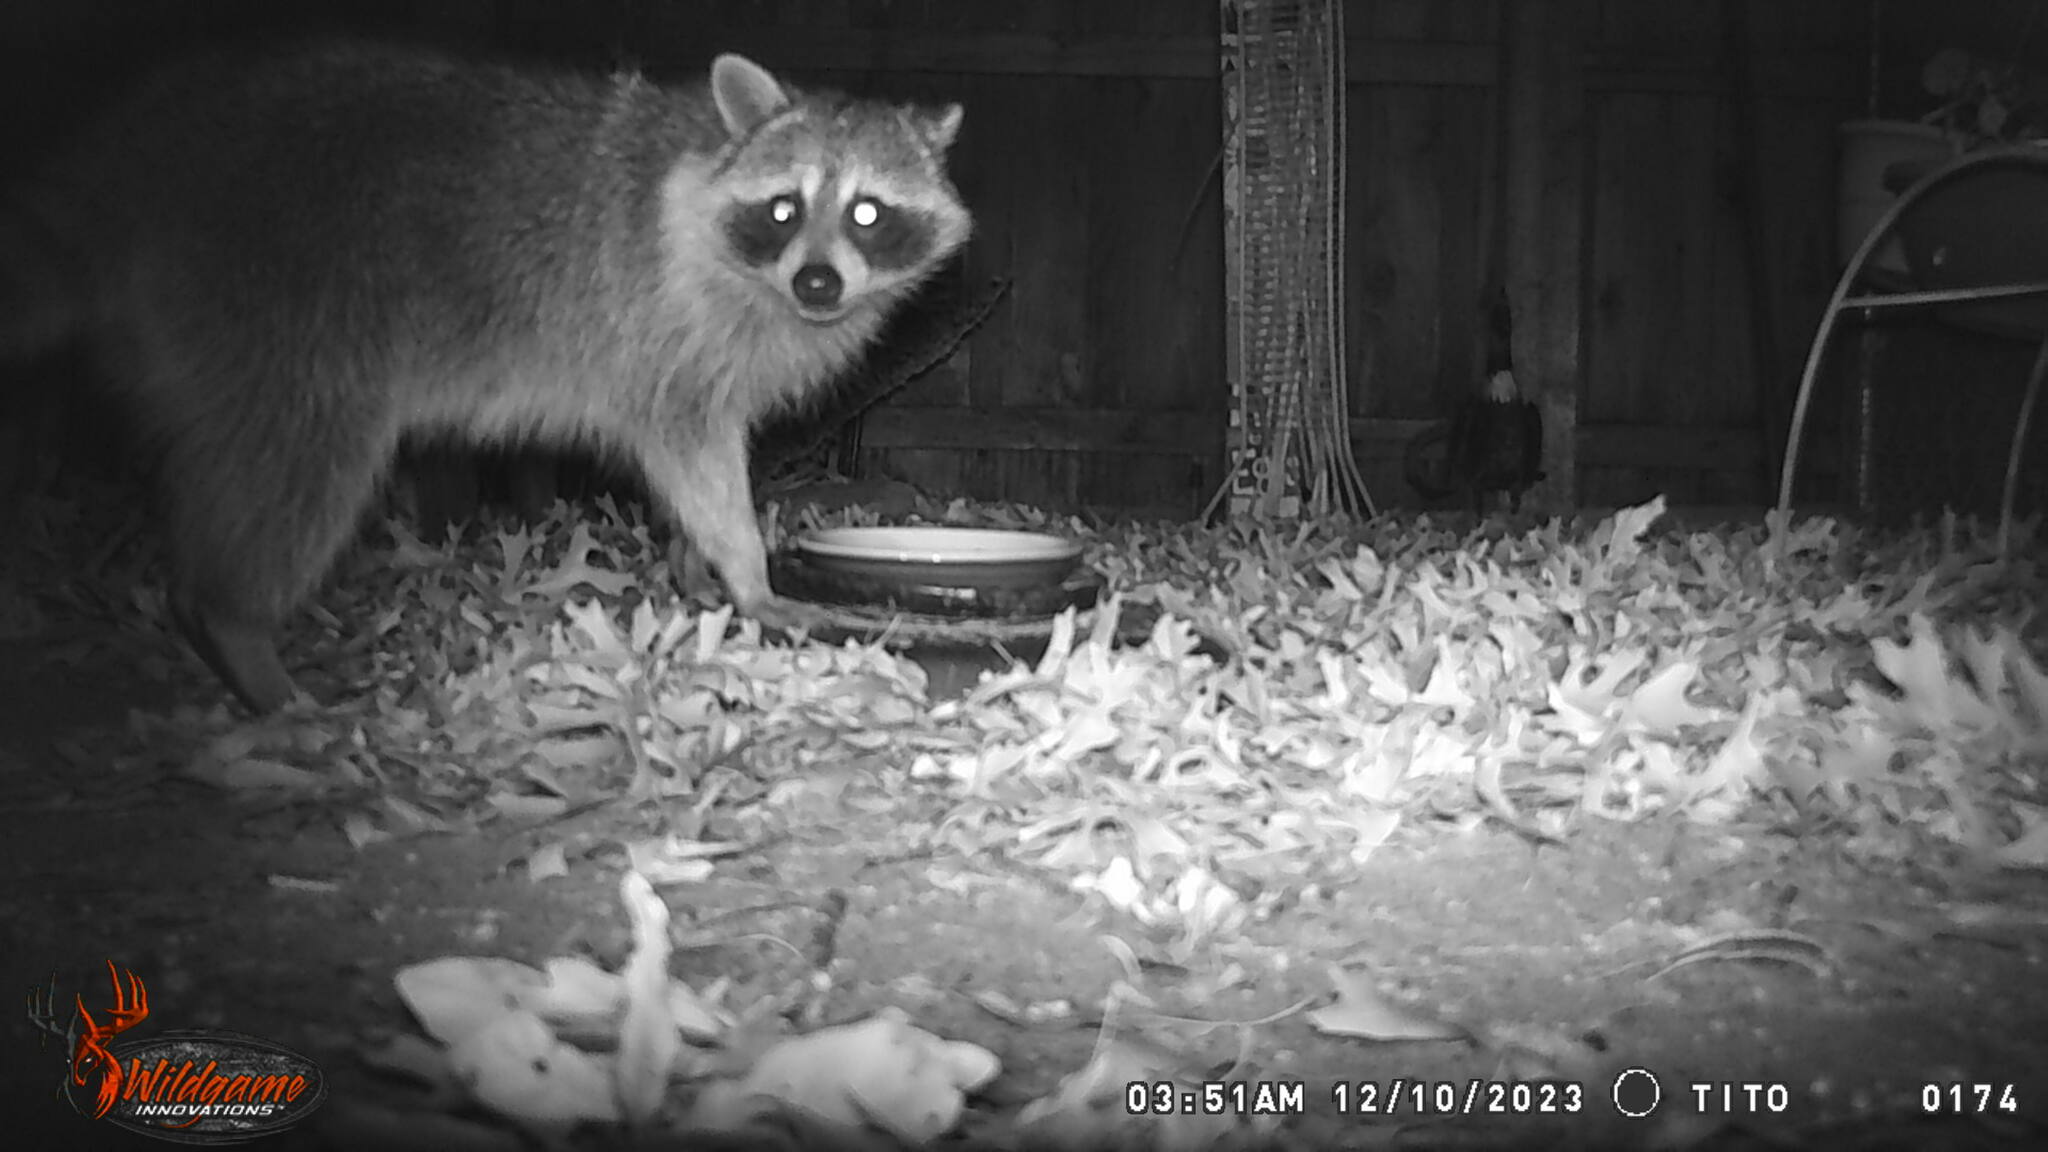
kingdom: Animalia
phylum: Chordata
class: Mammalia
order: Carnivora
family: Procyonidae
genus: Procyon
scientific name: Procyon lotor
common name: Raccoon
